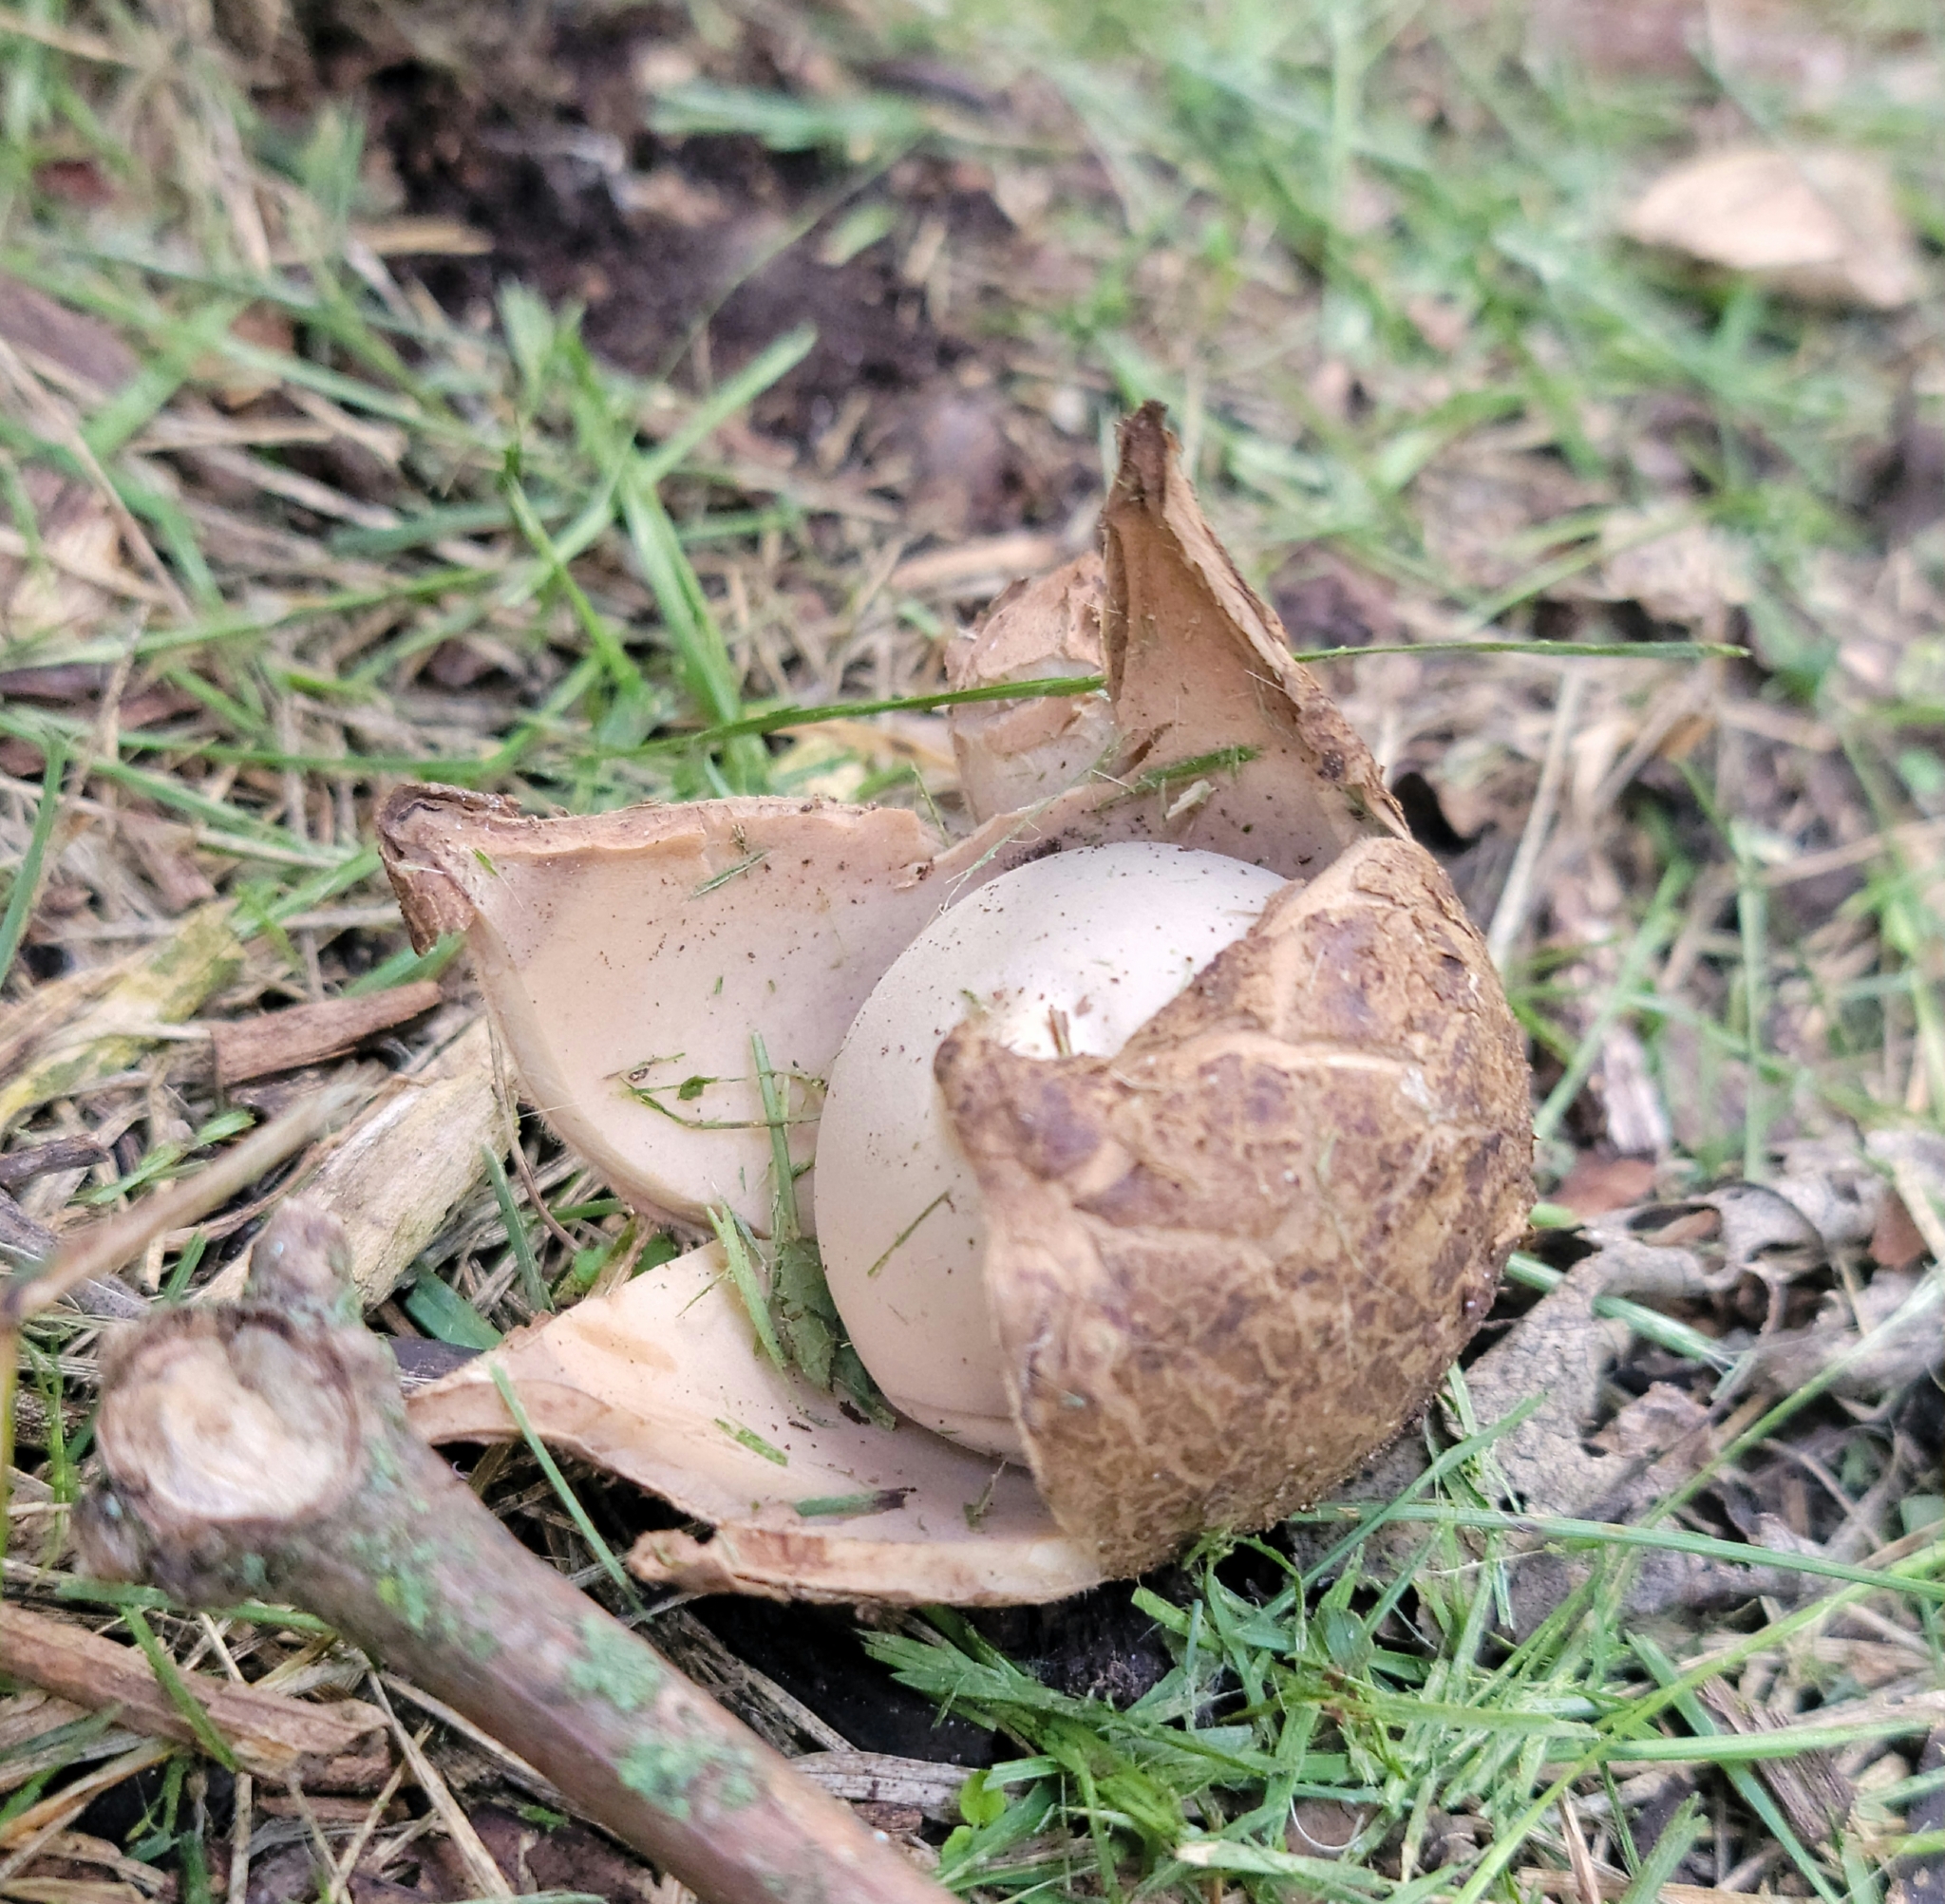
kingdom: Fungi
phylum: Basidiomycota
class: Agaricomycetes
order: Geastrales
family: Geastraceae
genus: Geastrum
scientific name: Geastrum triplex
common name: Collared earthstar
